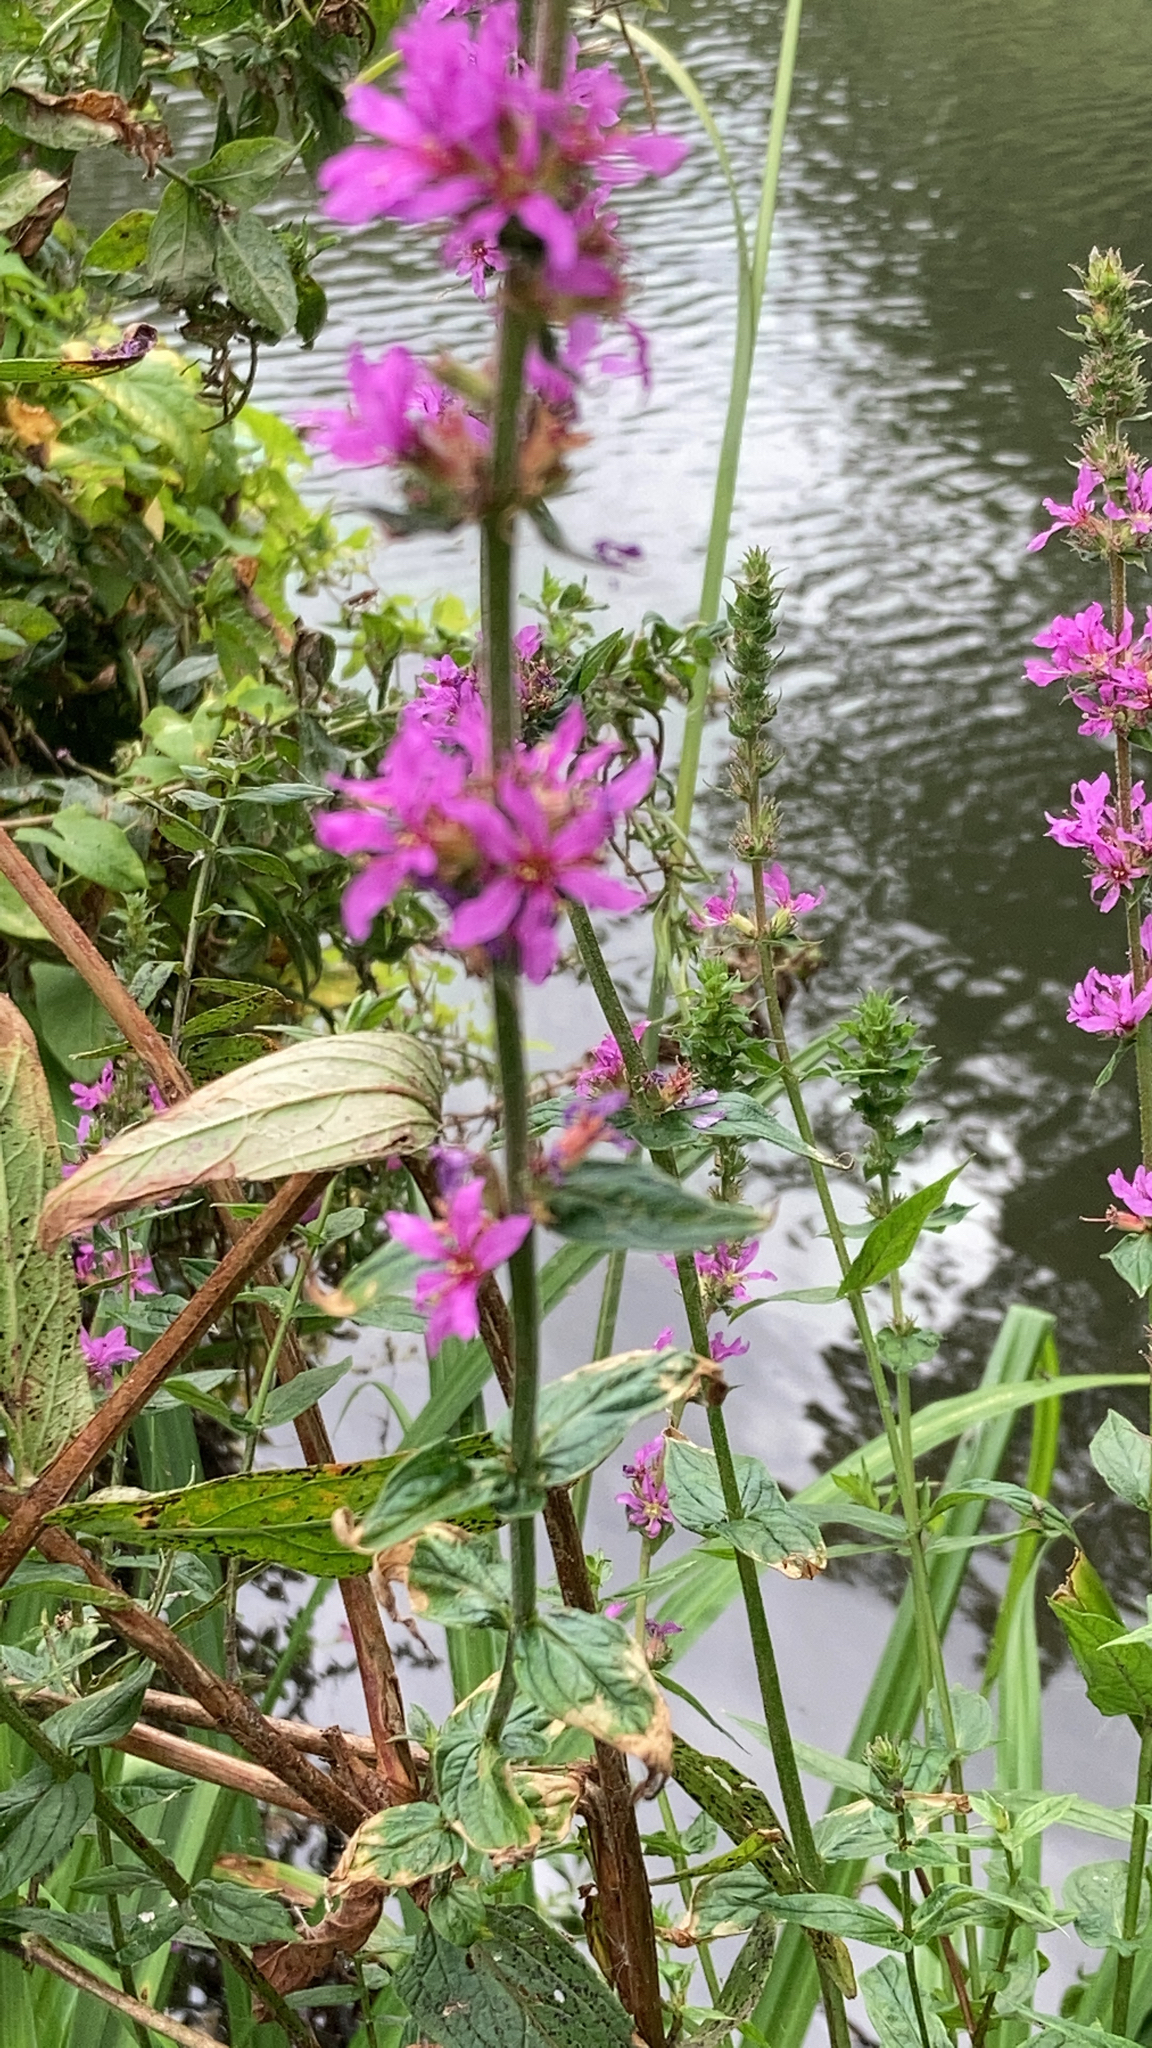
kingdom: Plantae
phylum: Tracheophyta
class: Magnoliopsida
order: Myrtales
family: Lythraceae
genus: Lythrum
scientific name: Lythrum salicaria
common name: Purple loosestrife
